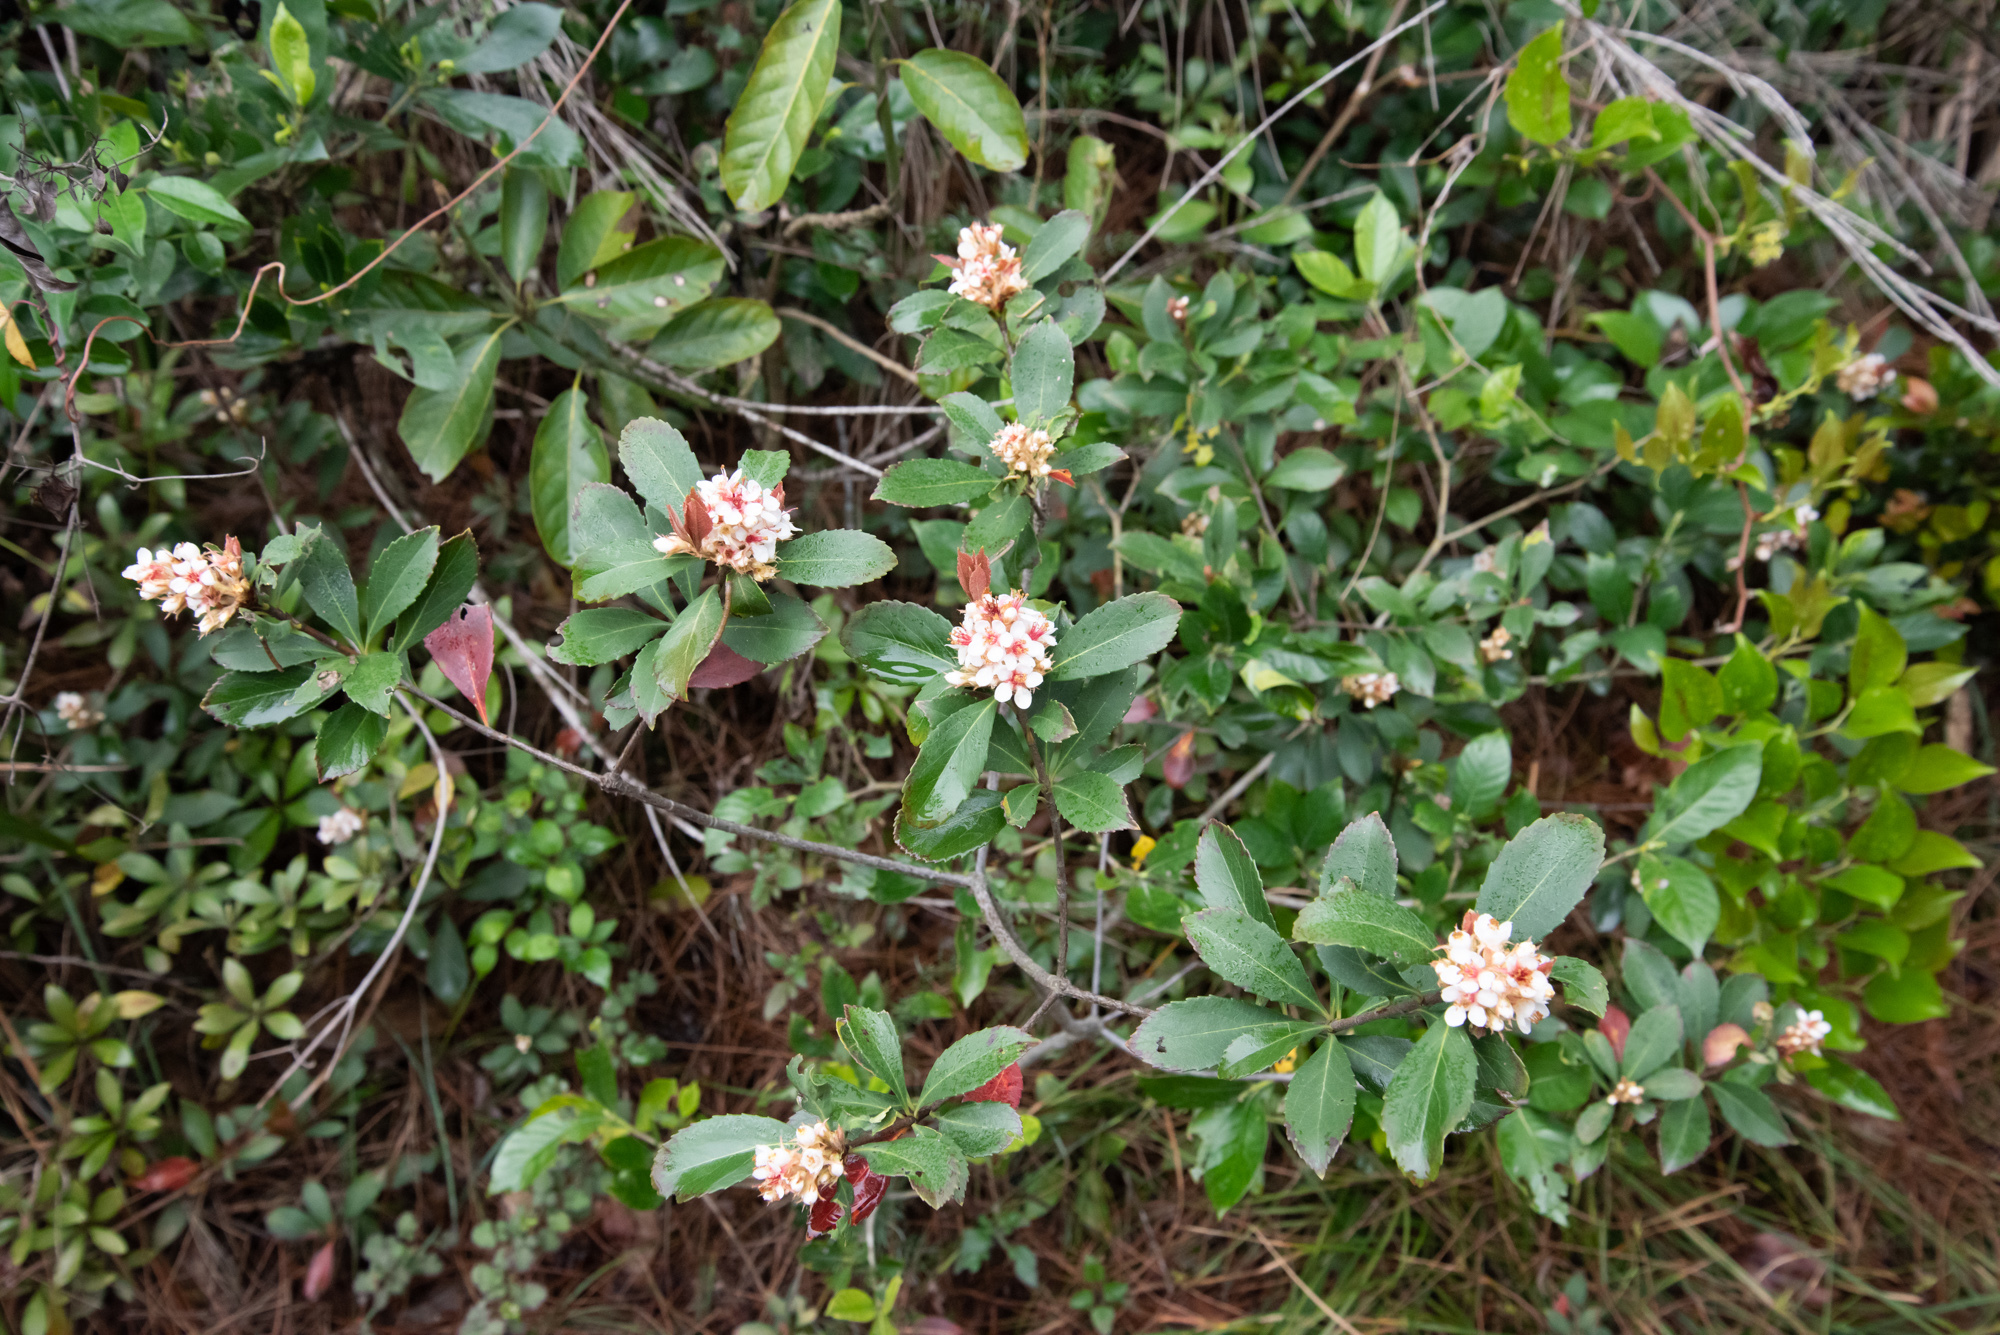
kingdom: Plantae
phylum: Tracheophyta
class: Magnoliopsida
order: Rosales
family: Rosaceae
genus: Rhaphiolepis
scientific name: Rhaphiolepis indica
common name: India-hawthorn
